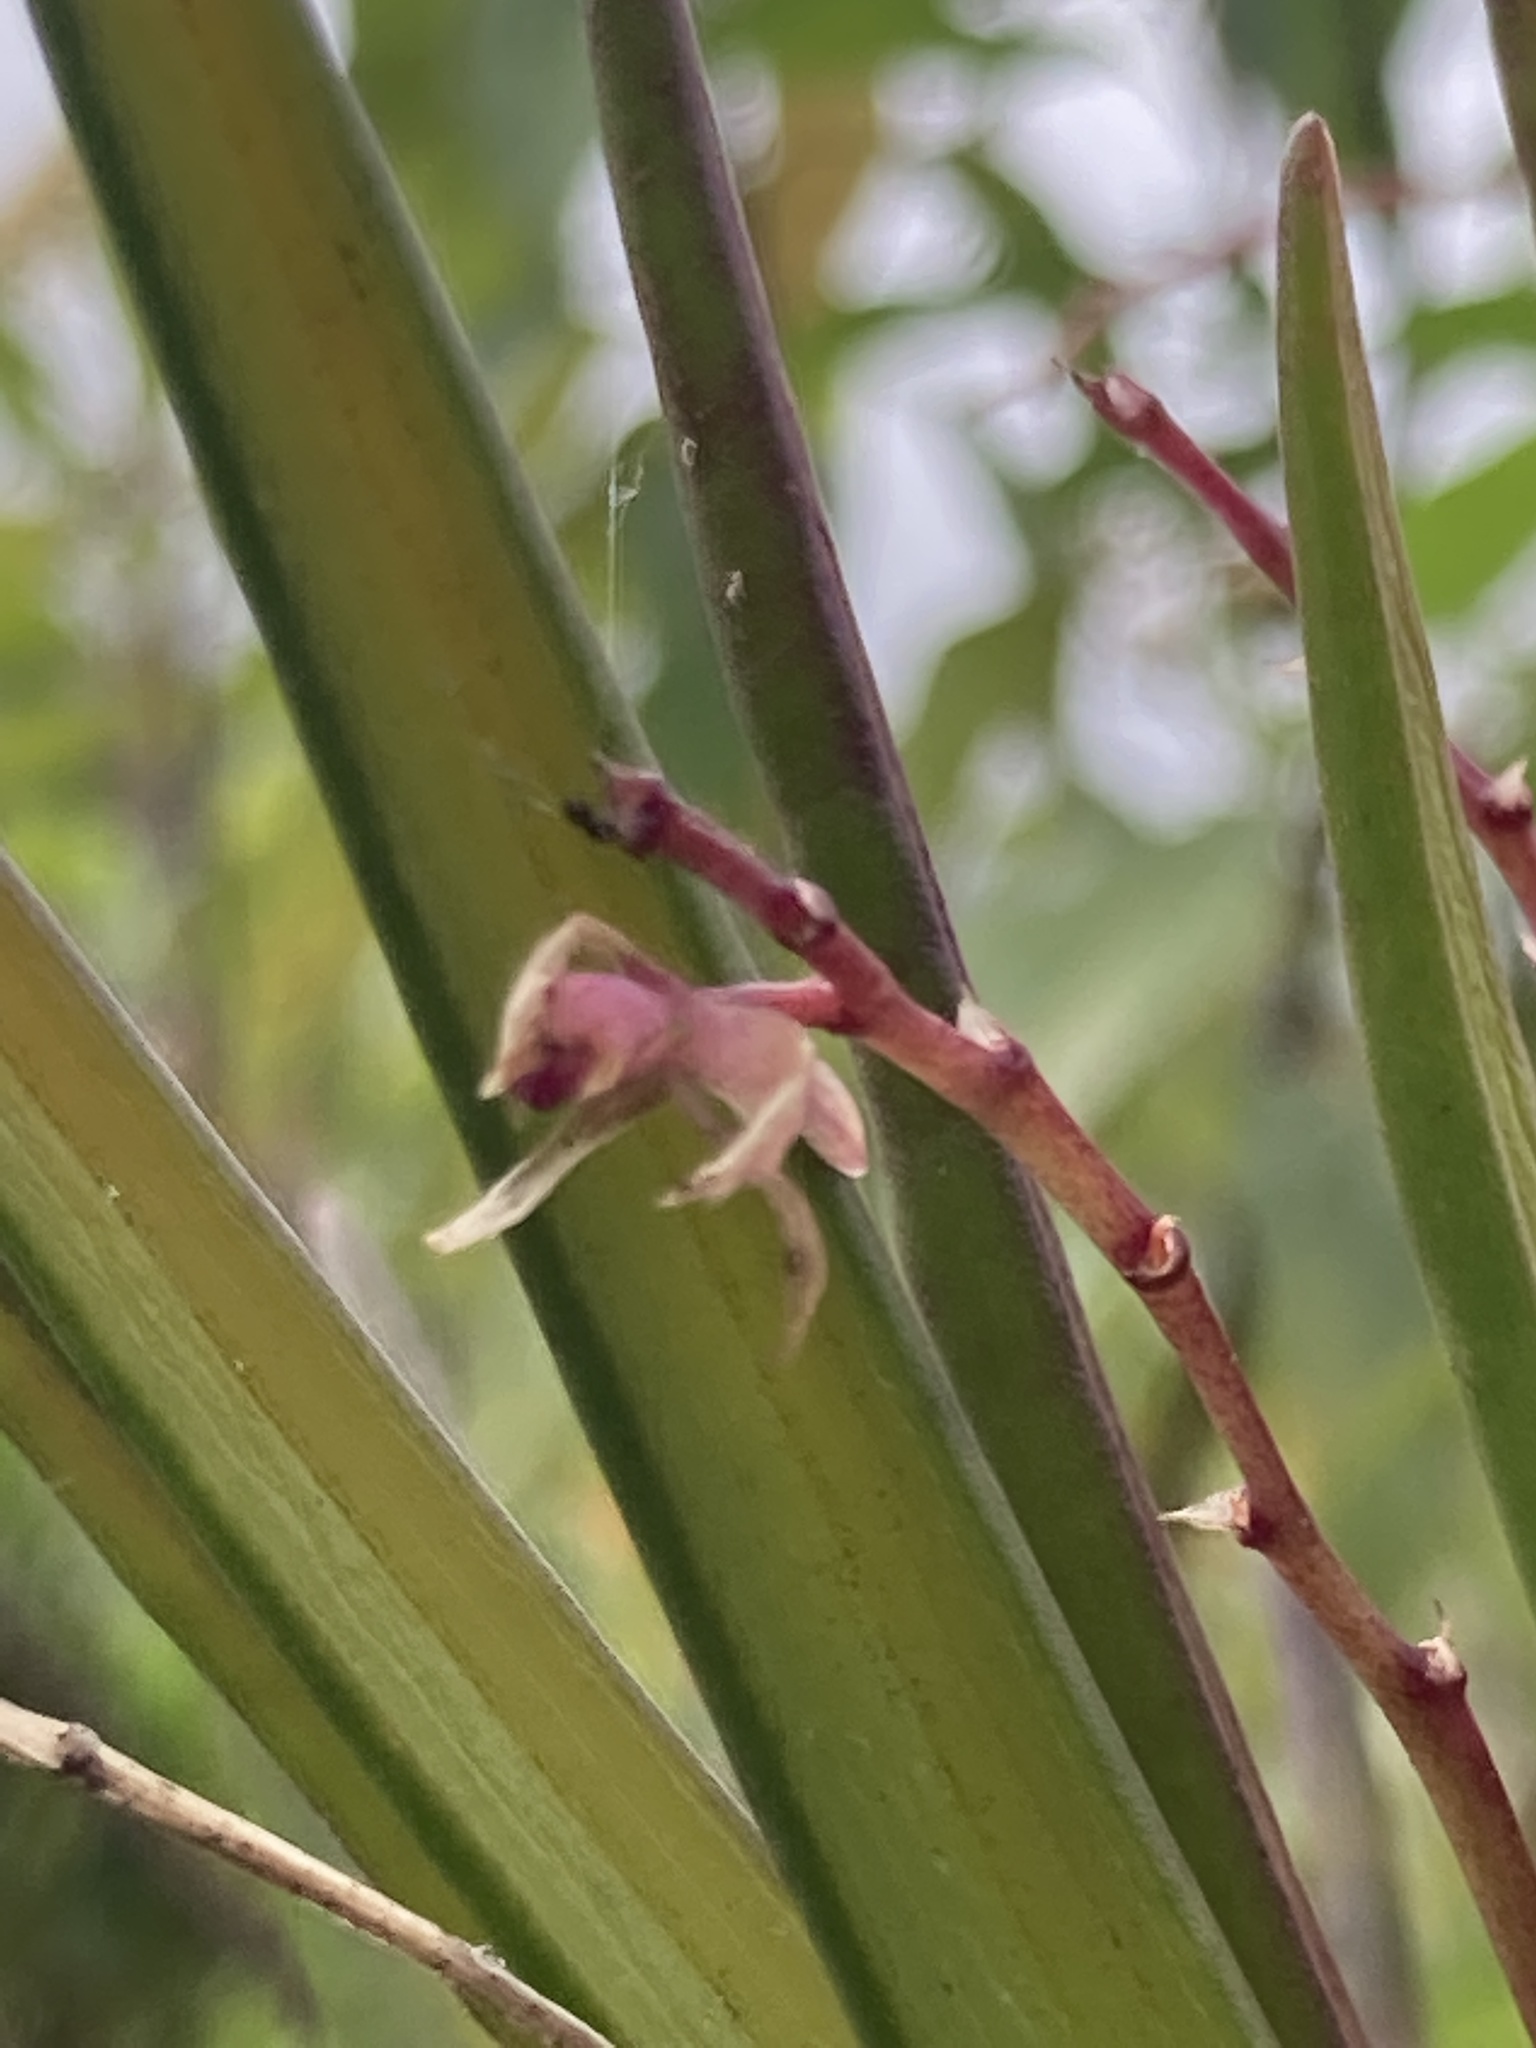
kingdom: Plantae
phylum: Tracheophyta
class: Liliopsida
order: Asparagales
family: Orchidaceae
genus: Epidendrum
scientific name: Epidendrum moritzii
